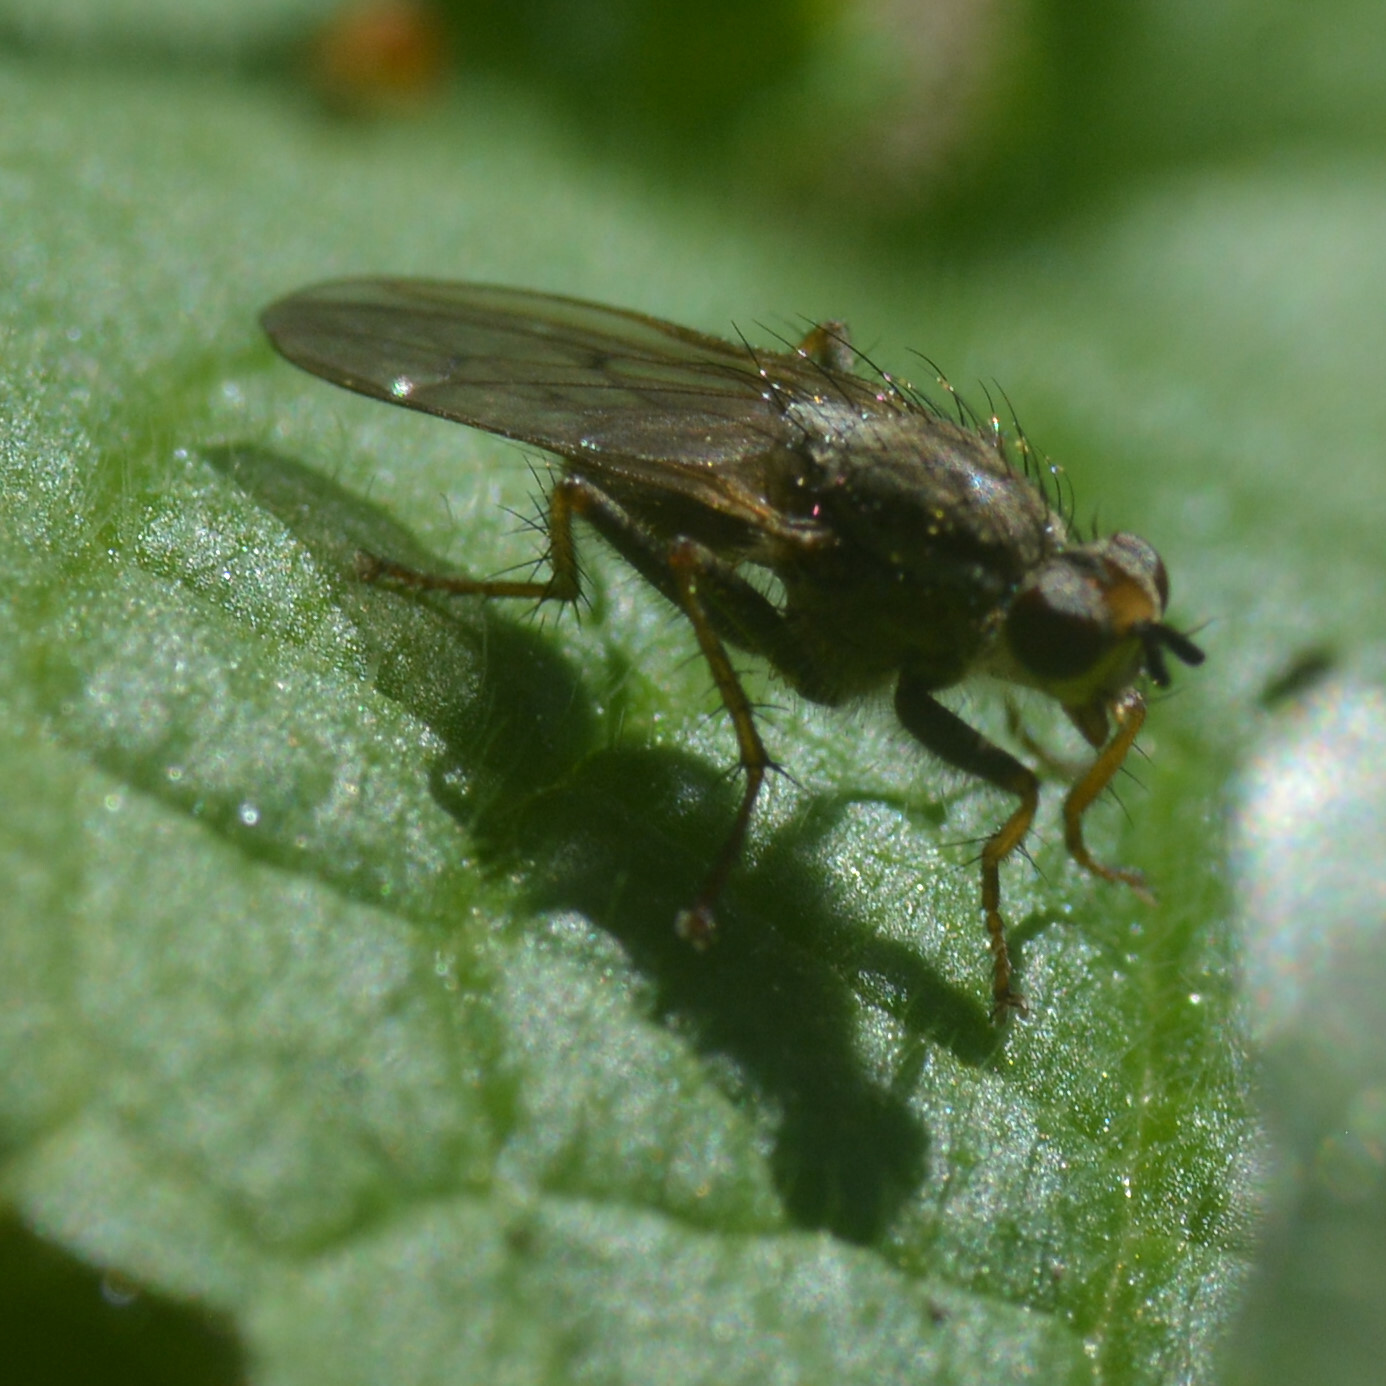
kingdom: Animalia
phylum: Arthropoda
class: Insecta
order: Diptera
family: Scathophagidae
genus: Scathophaga
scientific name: Scathophaga stercoraria
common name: Yellow dung fly
